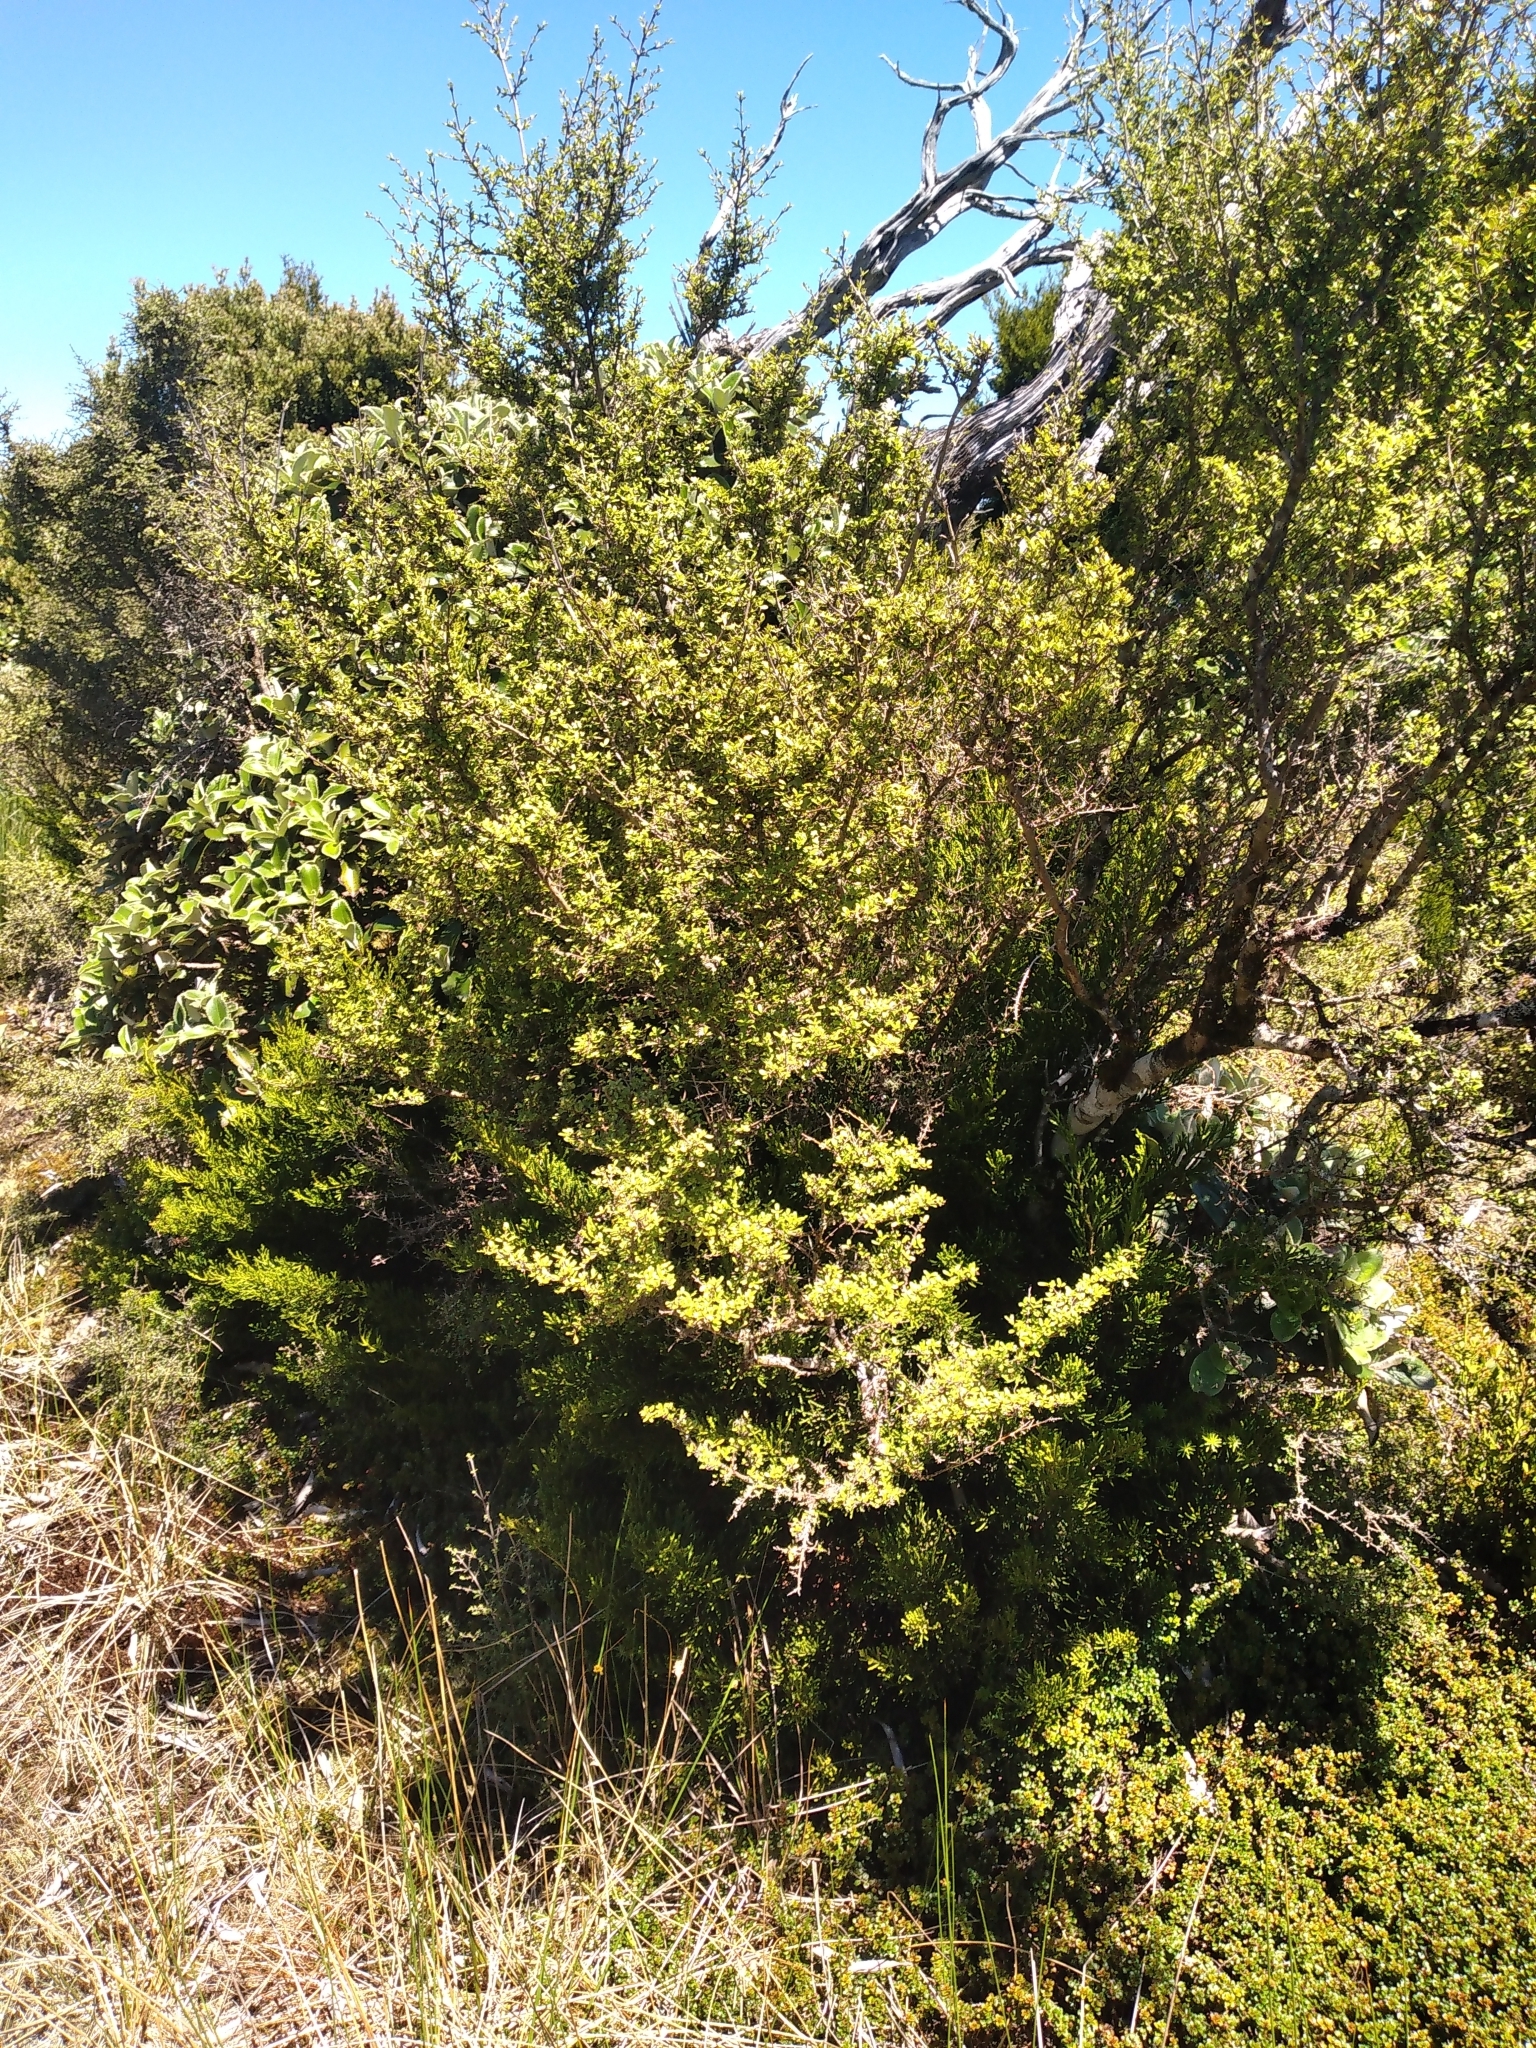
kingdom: Plantae
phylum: Tracheophyta
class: Magnoliopsida
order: Gentianales
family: Rubiaceae
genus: Coprosma
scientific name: Coprosma dumosa
